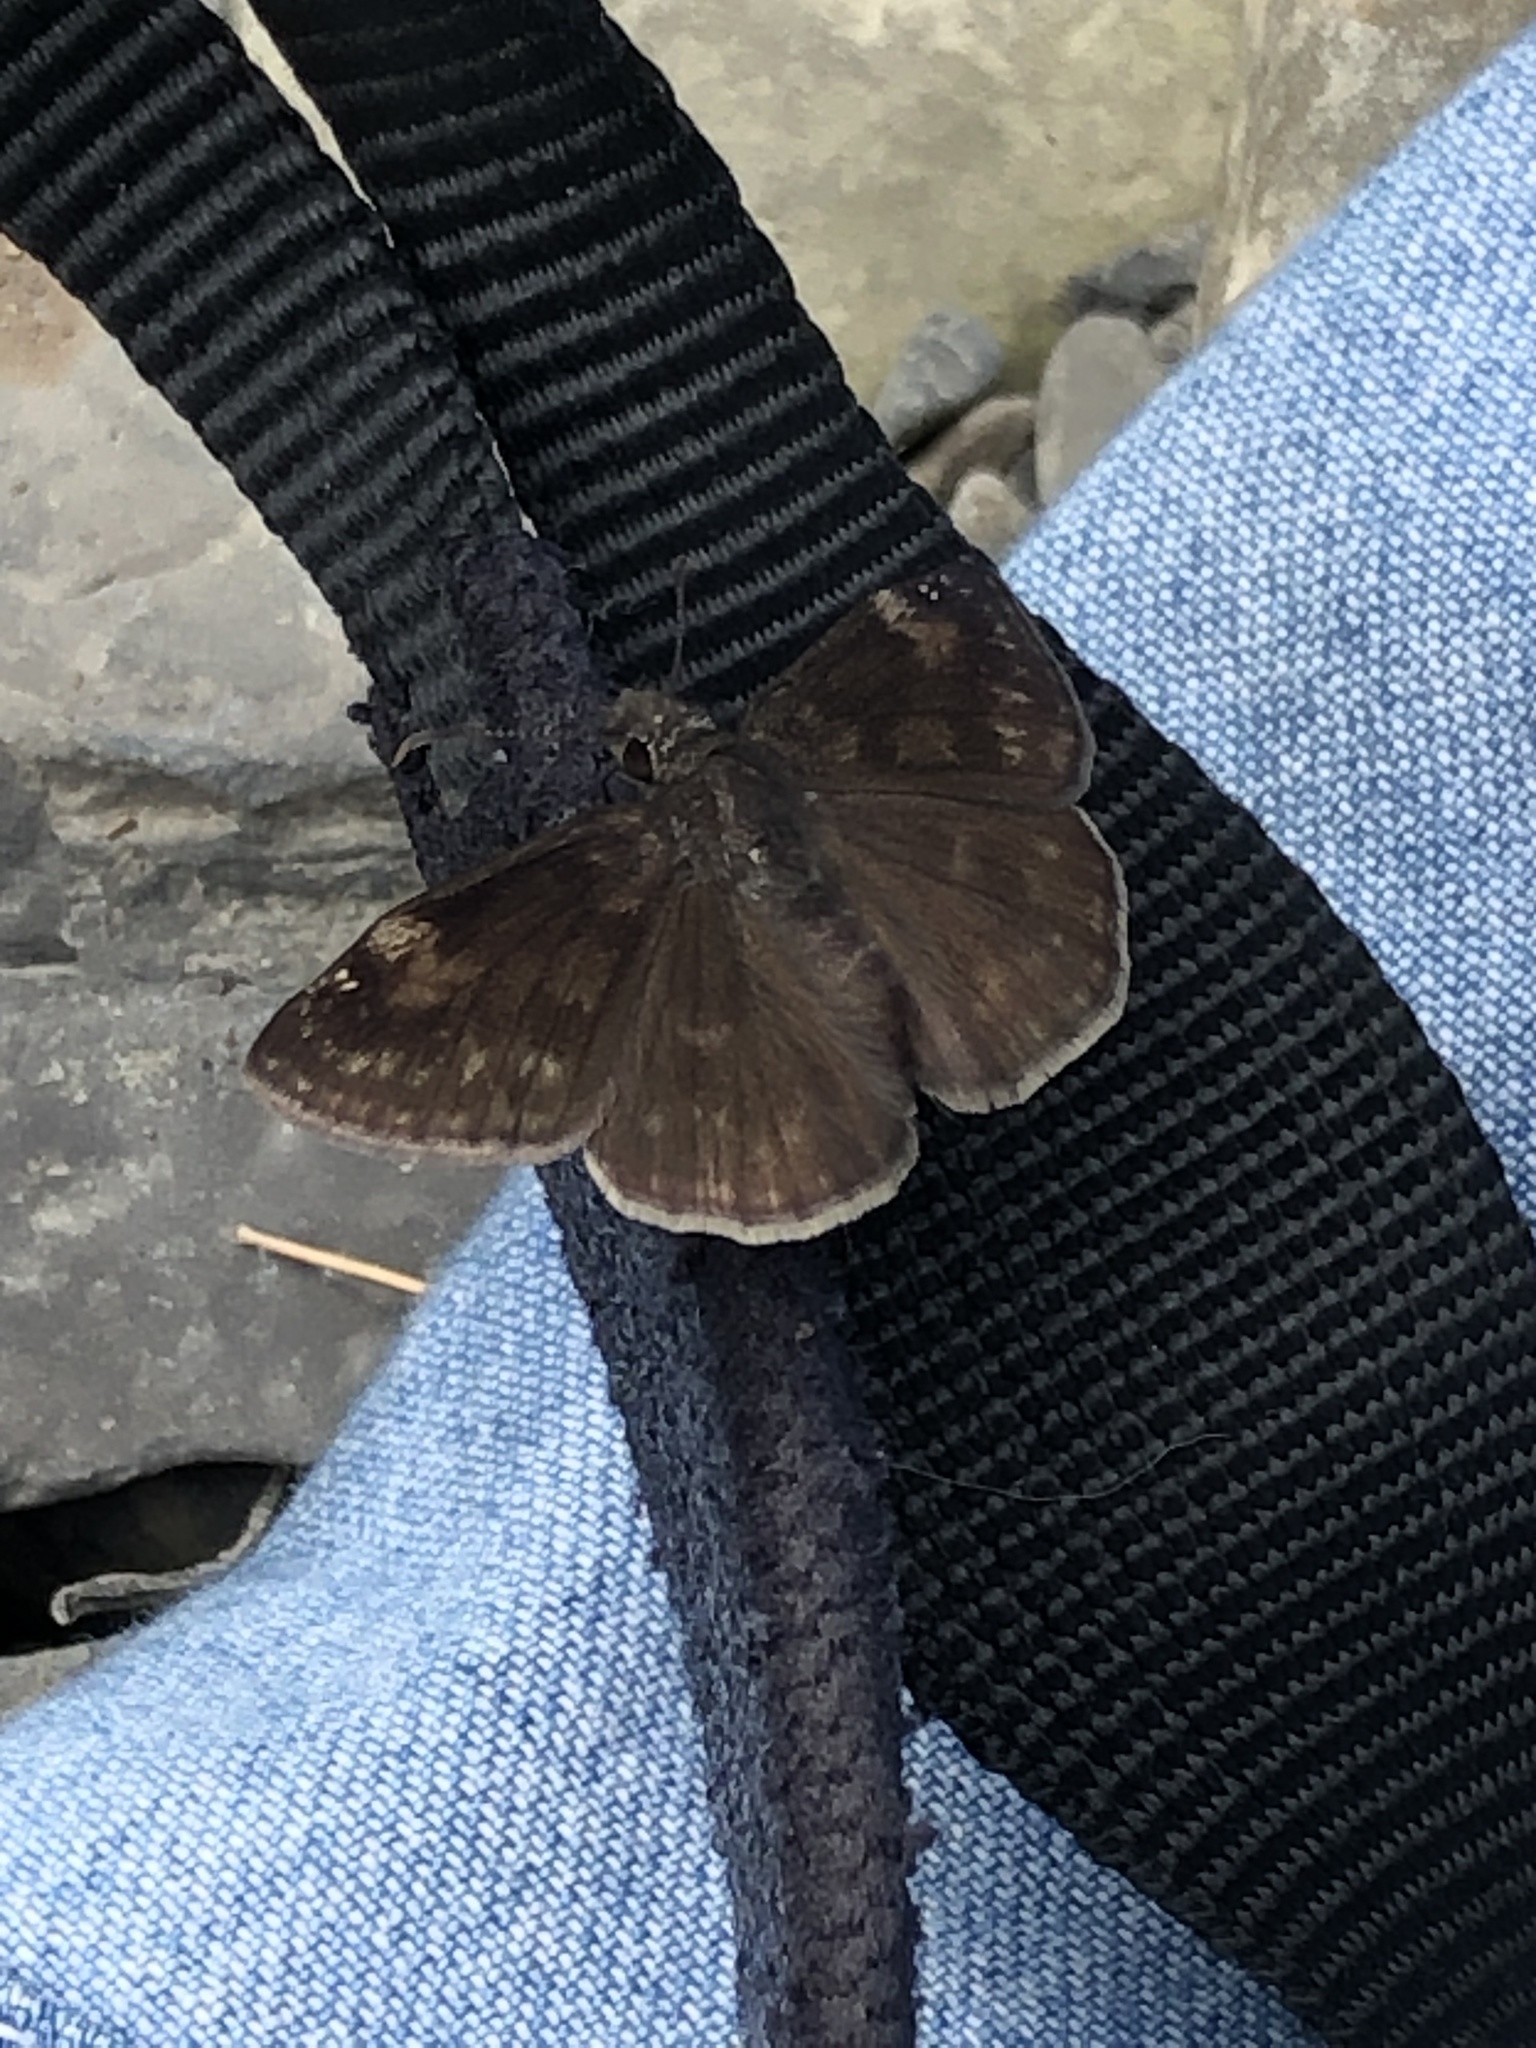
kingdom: Animalia
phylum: Arthropoda
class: Insecta
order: Lepidoptera
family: Hesperiidae
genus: Erynnis
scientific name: Erynnis baptisiae
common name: Wild indigo duskywing
